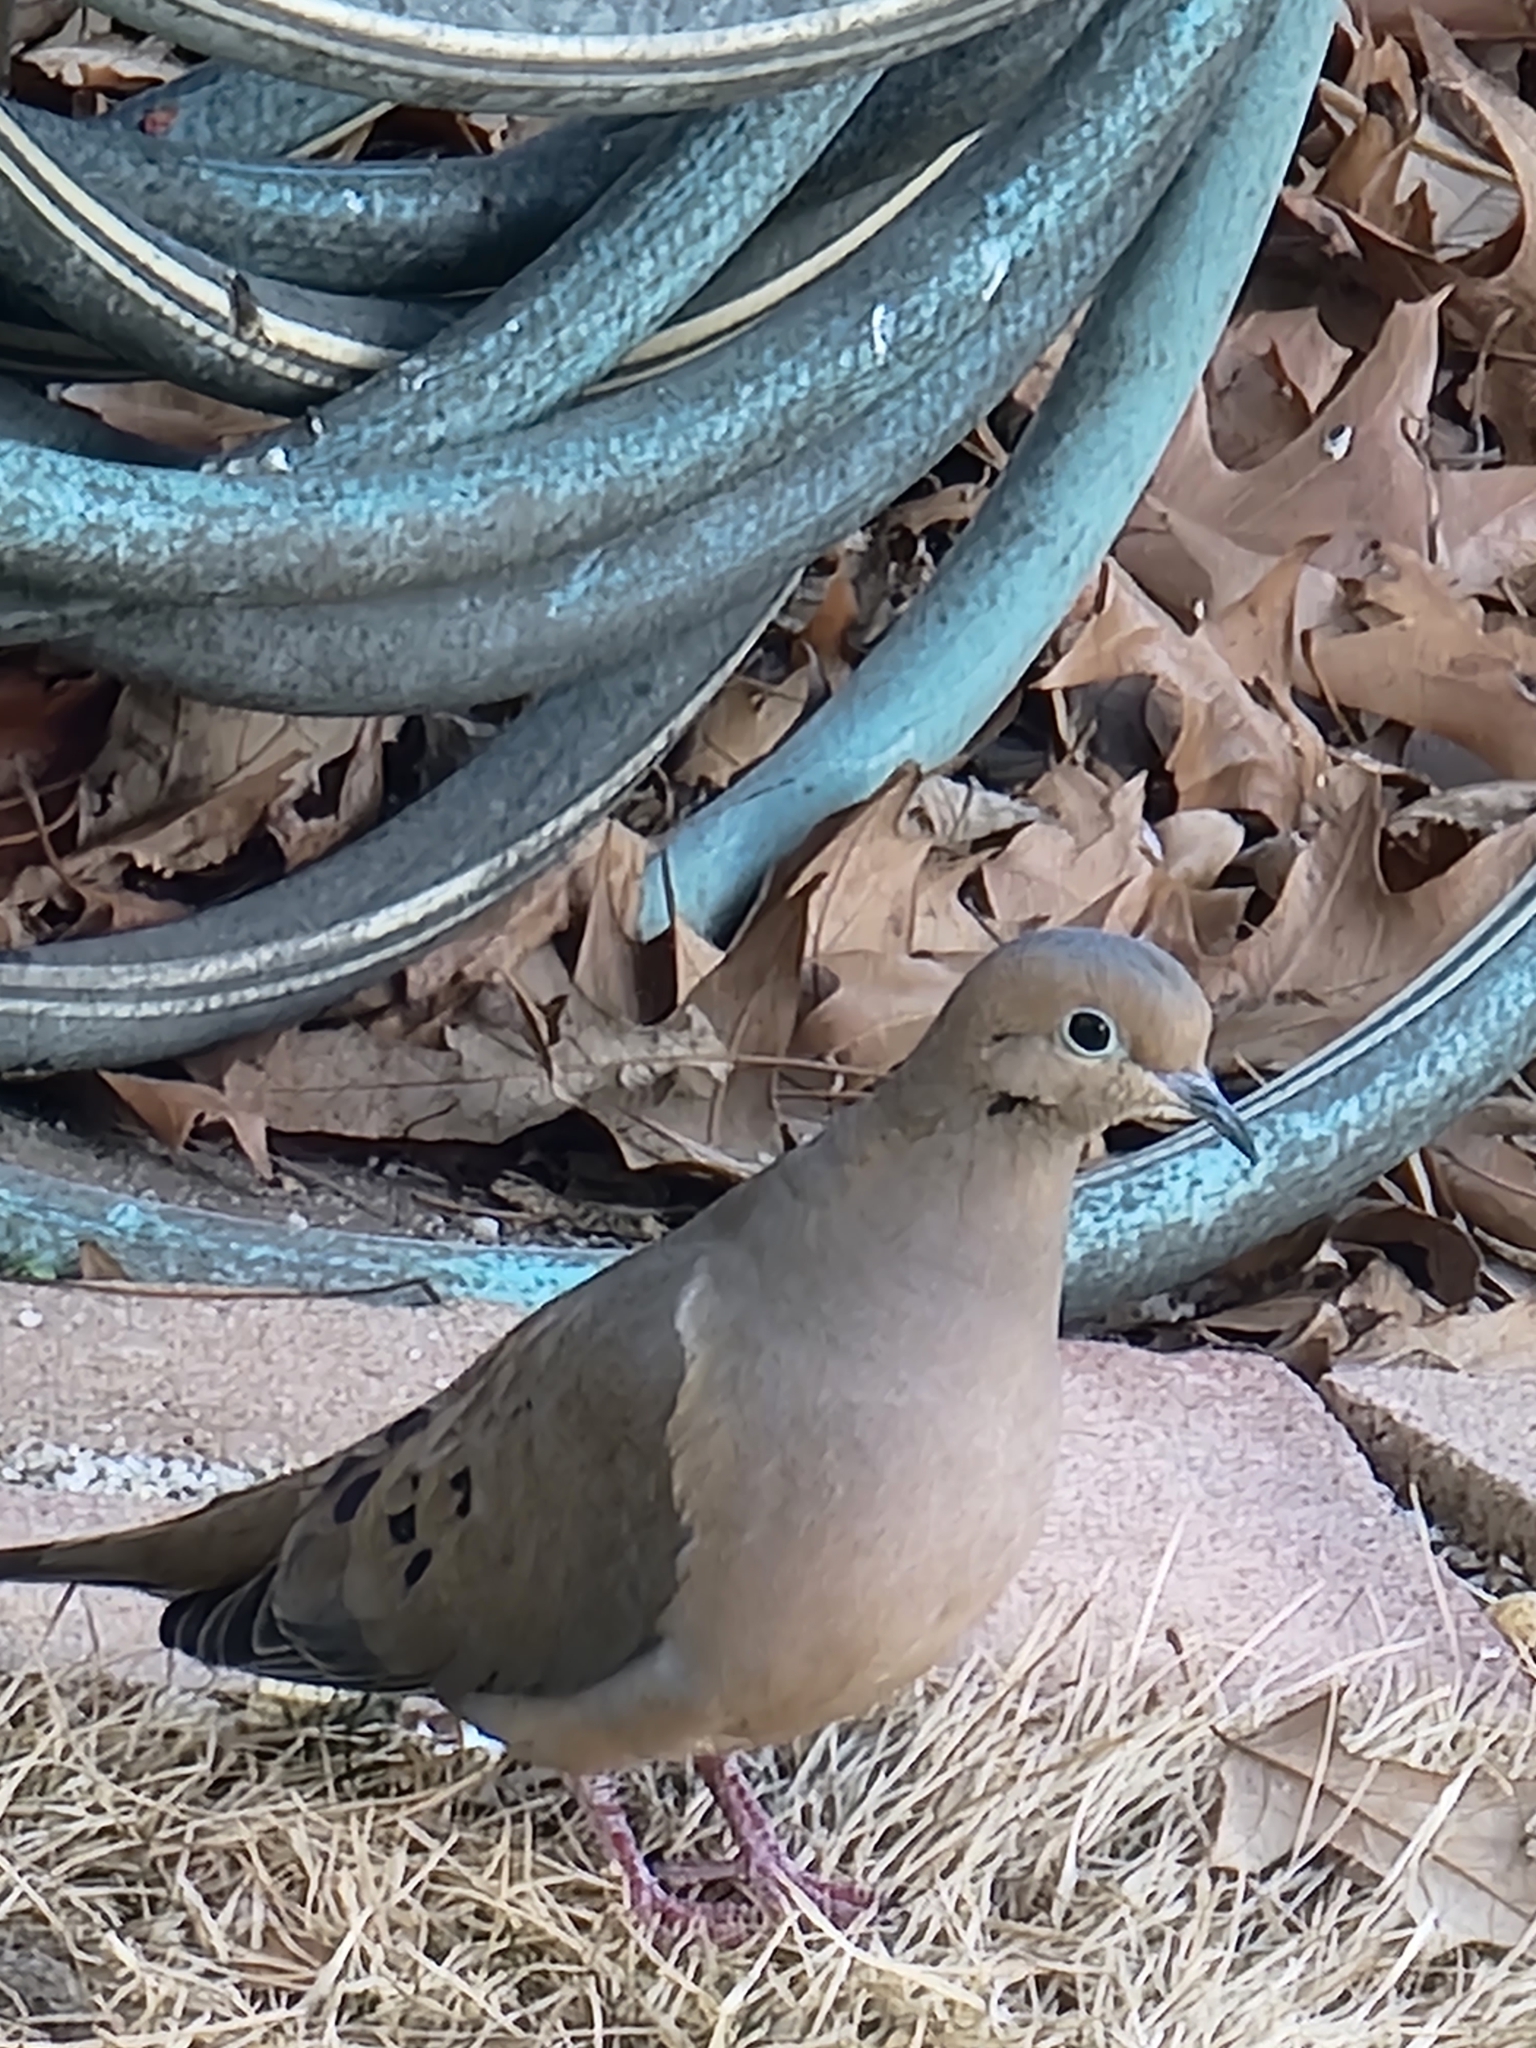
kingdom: Animalia
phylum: Chordata
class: Aves
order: Columbiformes
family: Columbidae
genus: Zenaida
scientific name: Zenaida macroura
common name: Mourning dove
